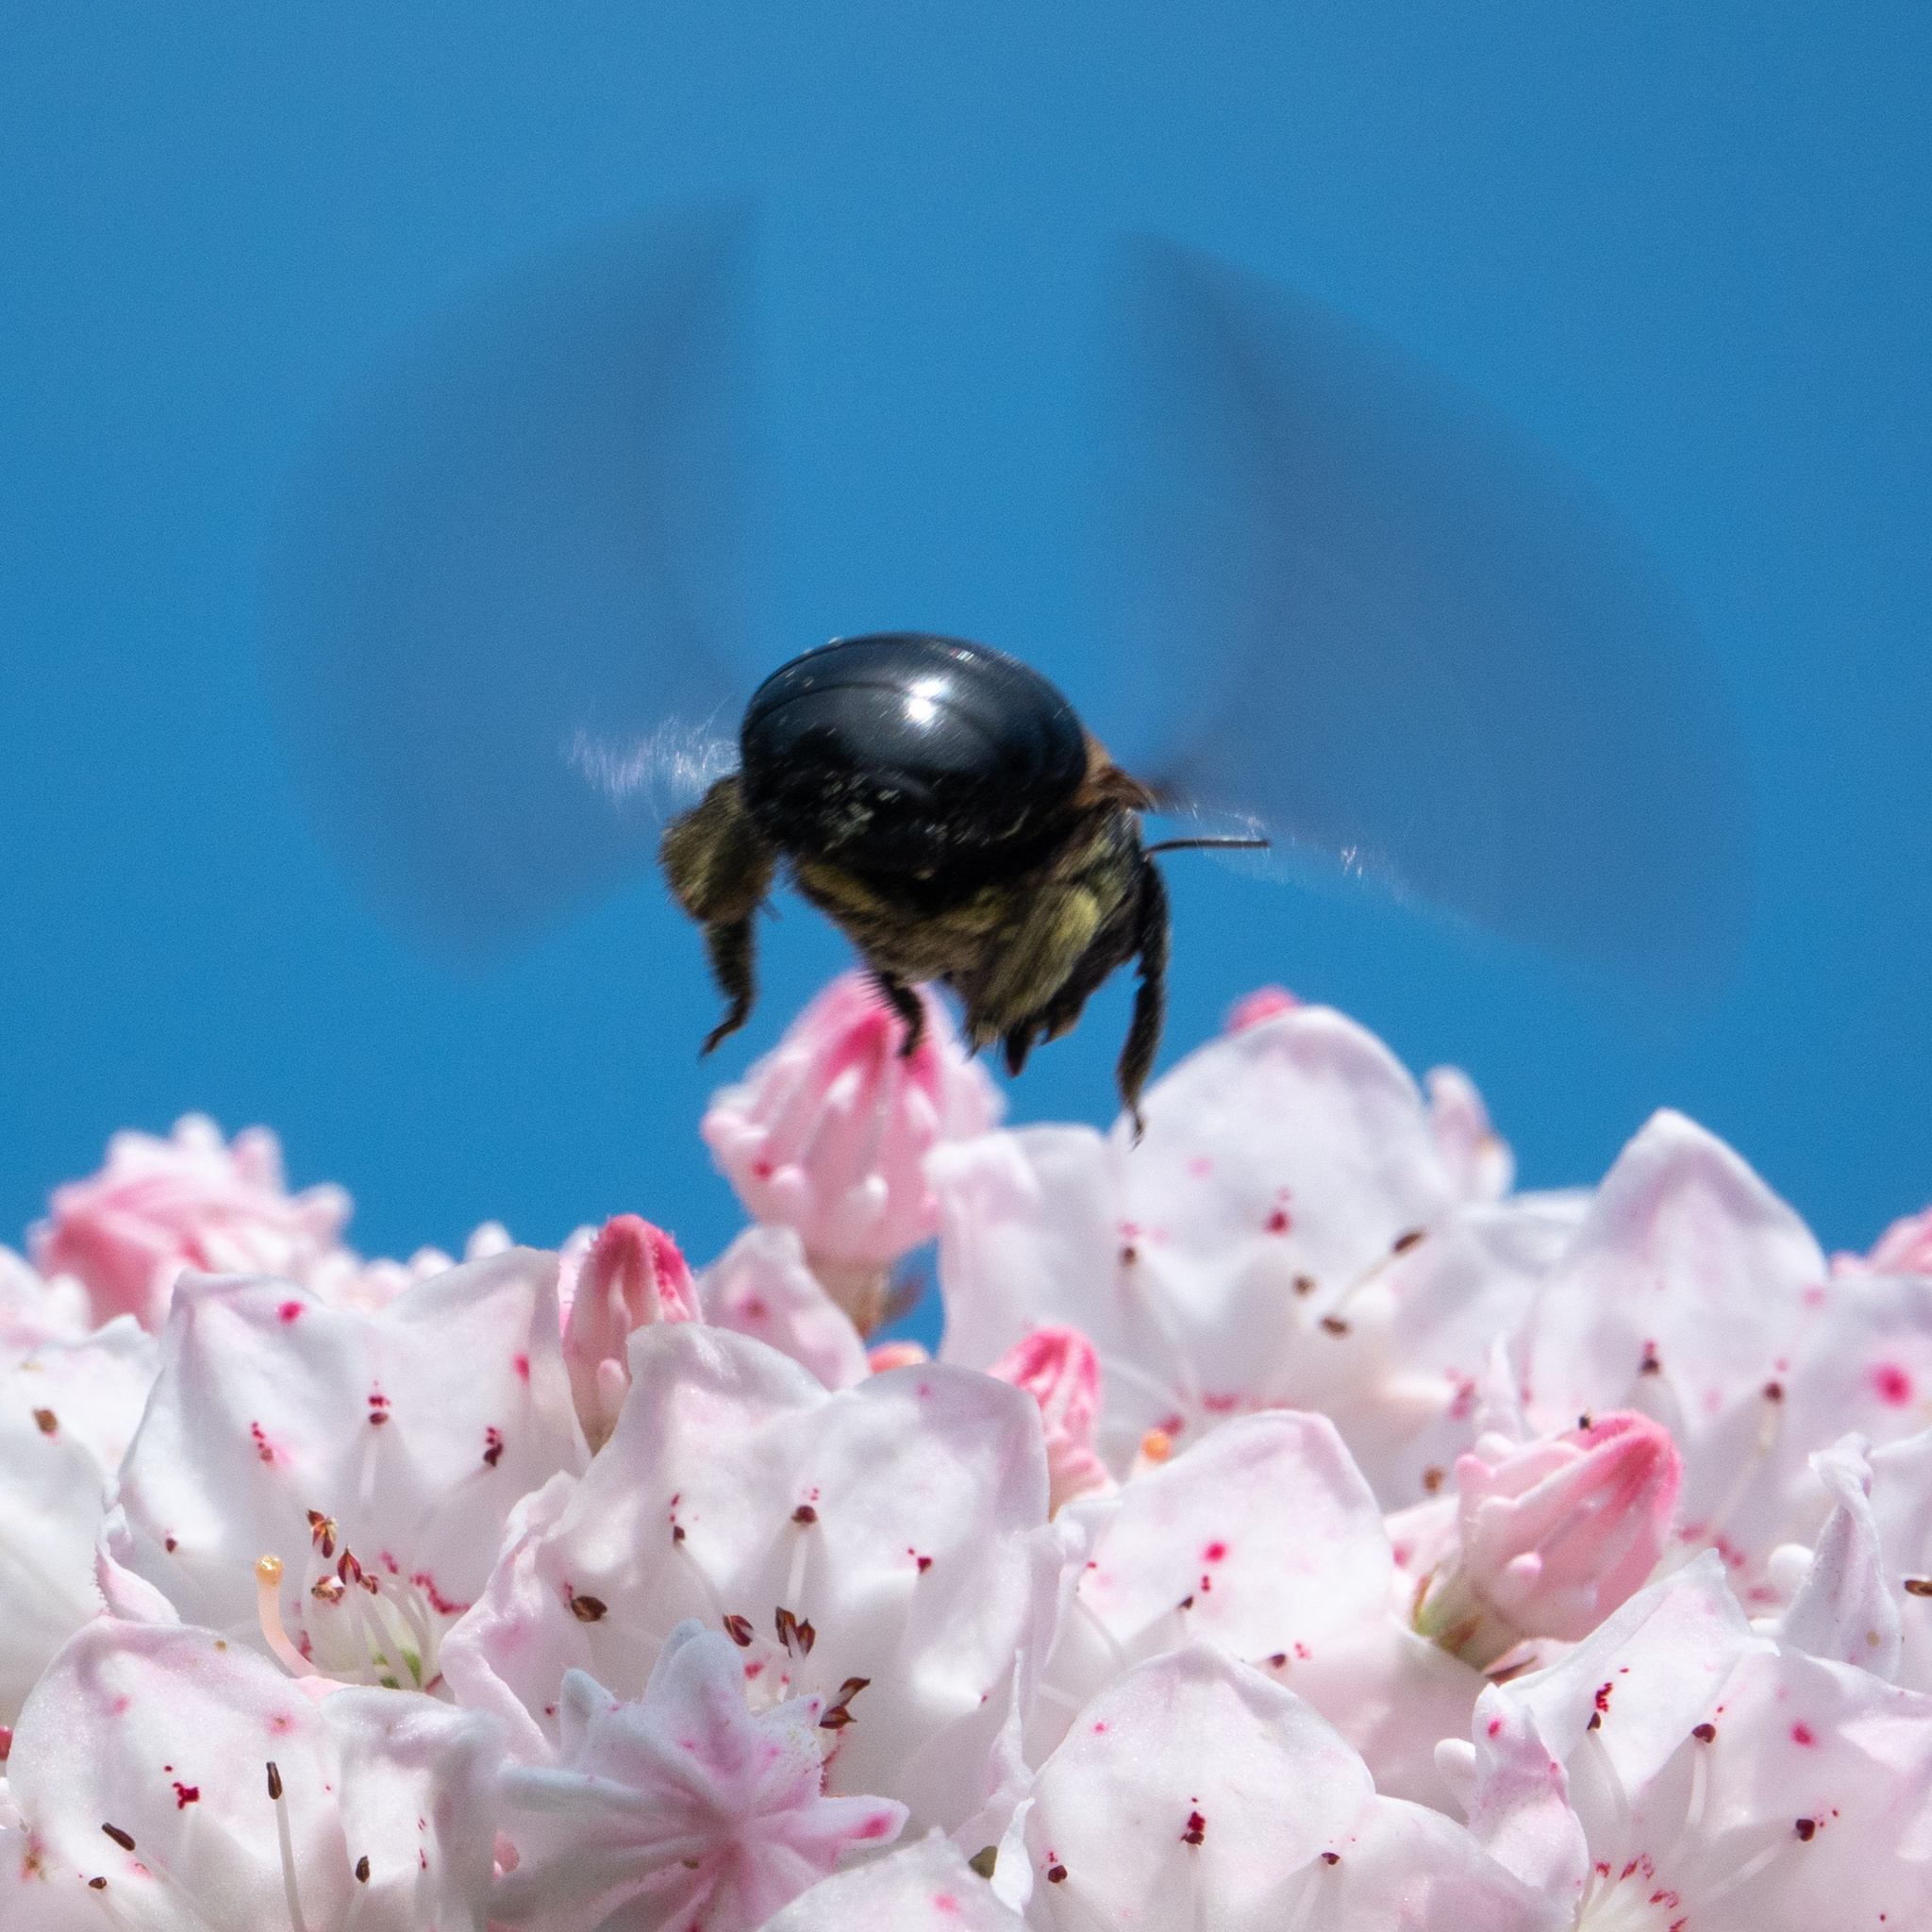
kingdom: Animalia
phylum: Arthropoda
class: Insecta
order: Hymenoptera
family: Apidae
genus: Xylocopa
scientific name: Xylocopa virginica
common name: Carpenter bee
